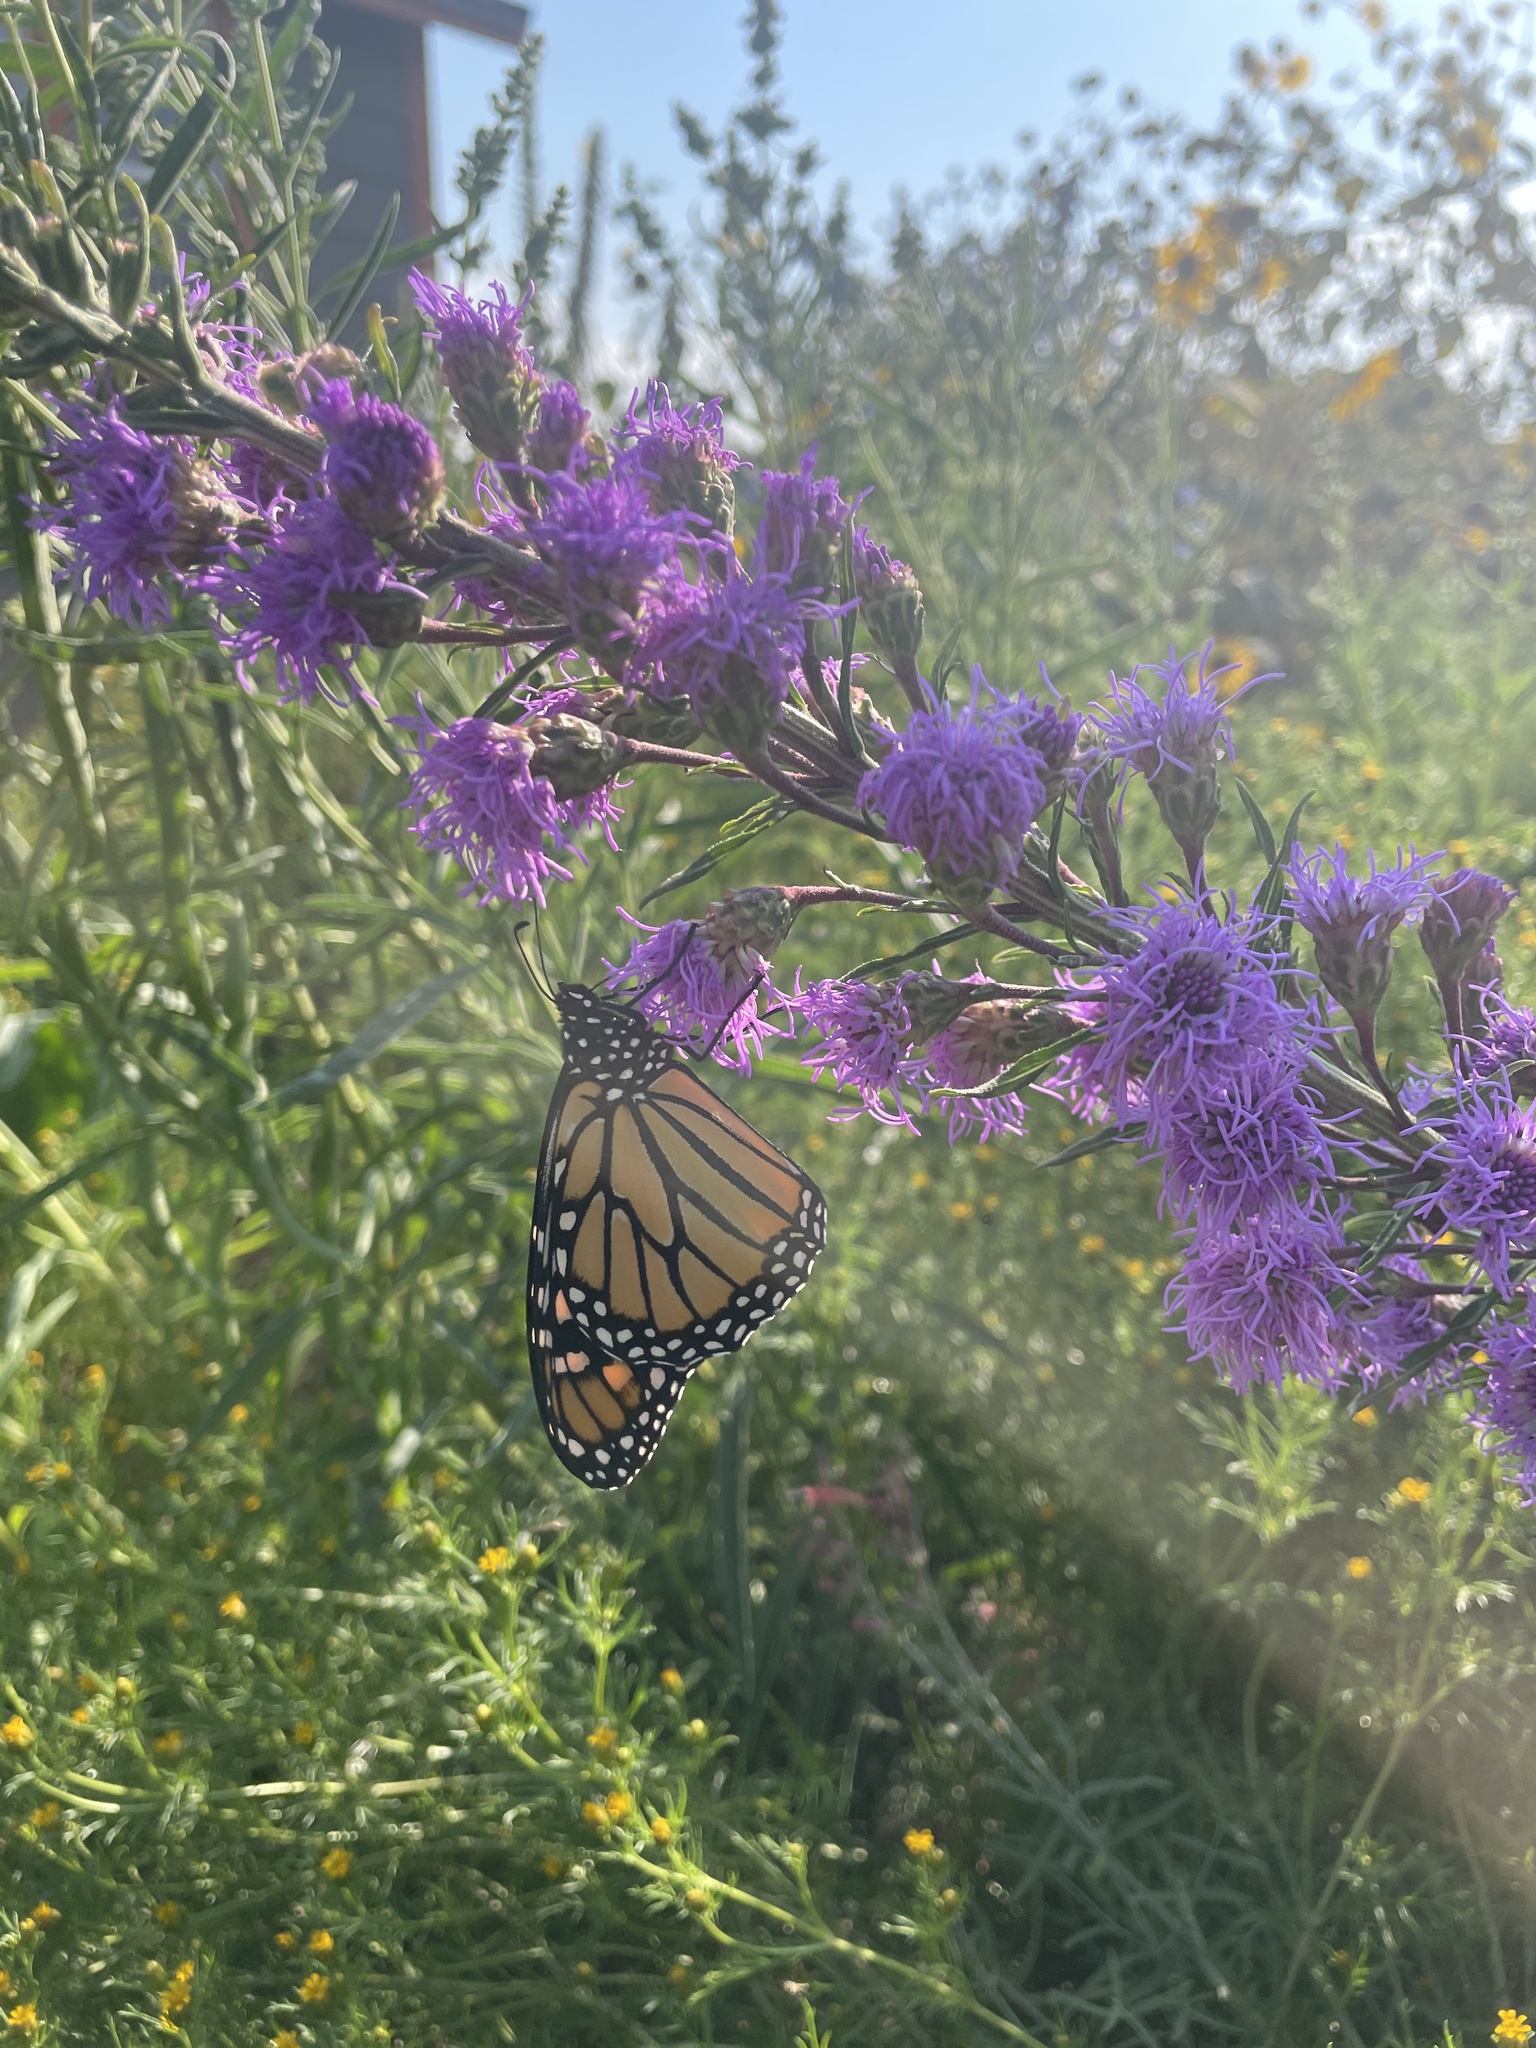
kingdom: Animalia
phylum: Arthropoda
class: Insecta
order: Lepidoptera
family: Nymphalidae
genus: Danaus
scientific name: Danaus plexippus
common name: Monarch
